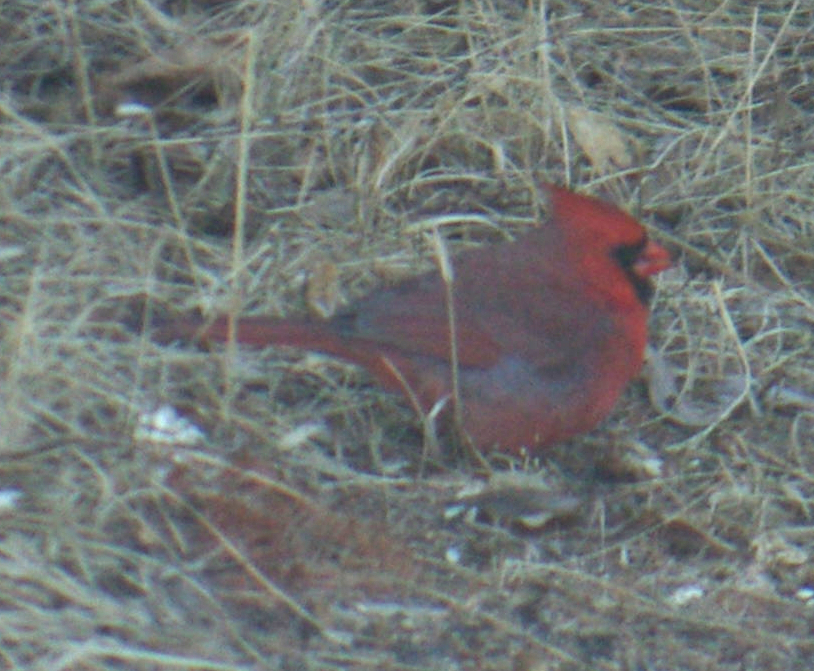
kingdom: Animalia
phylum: Chordata
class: Aves
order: Passeriformes
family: Cardinalidae
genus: Cardinalis
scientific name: Cardinalis cardinalis
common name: Northern cardinal
